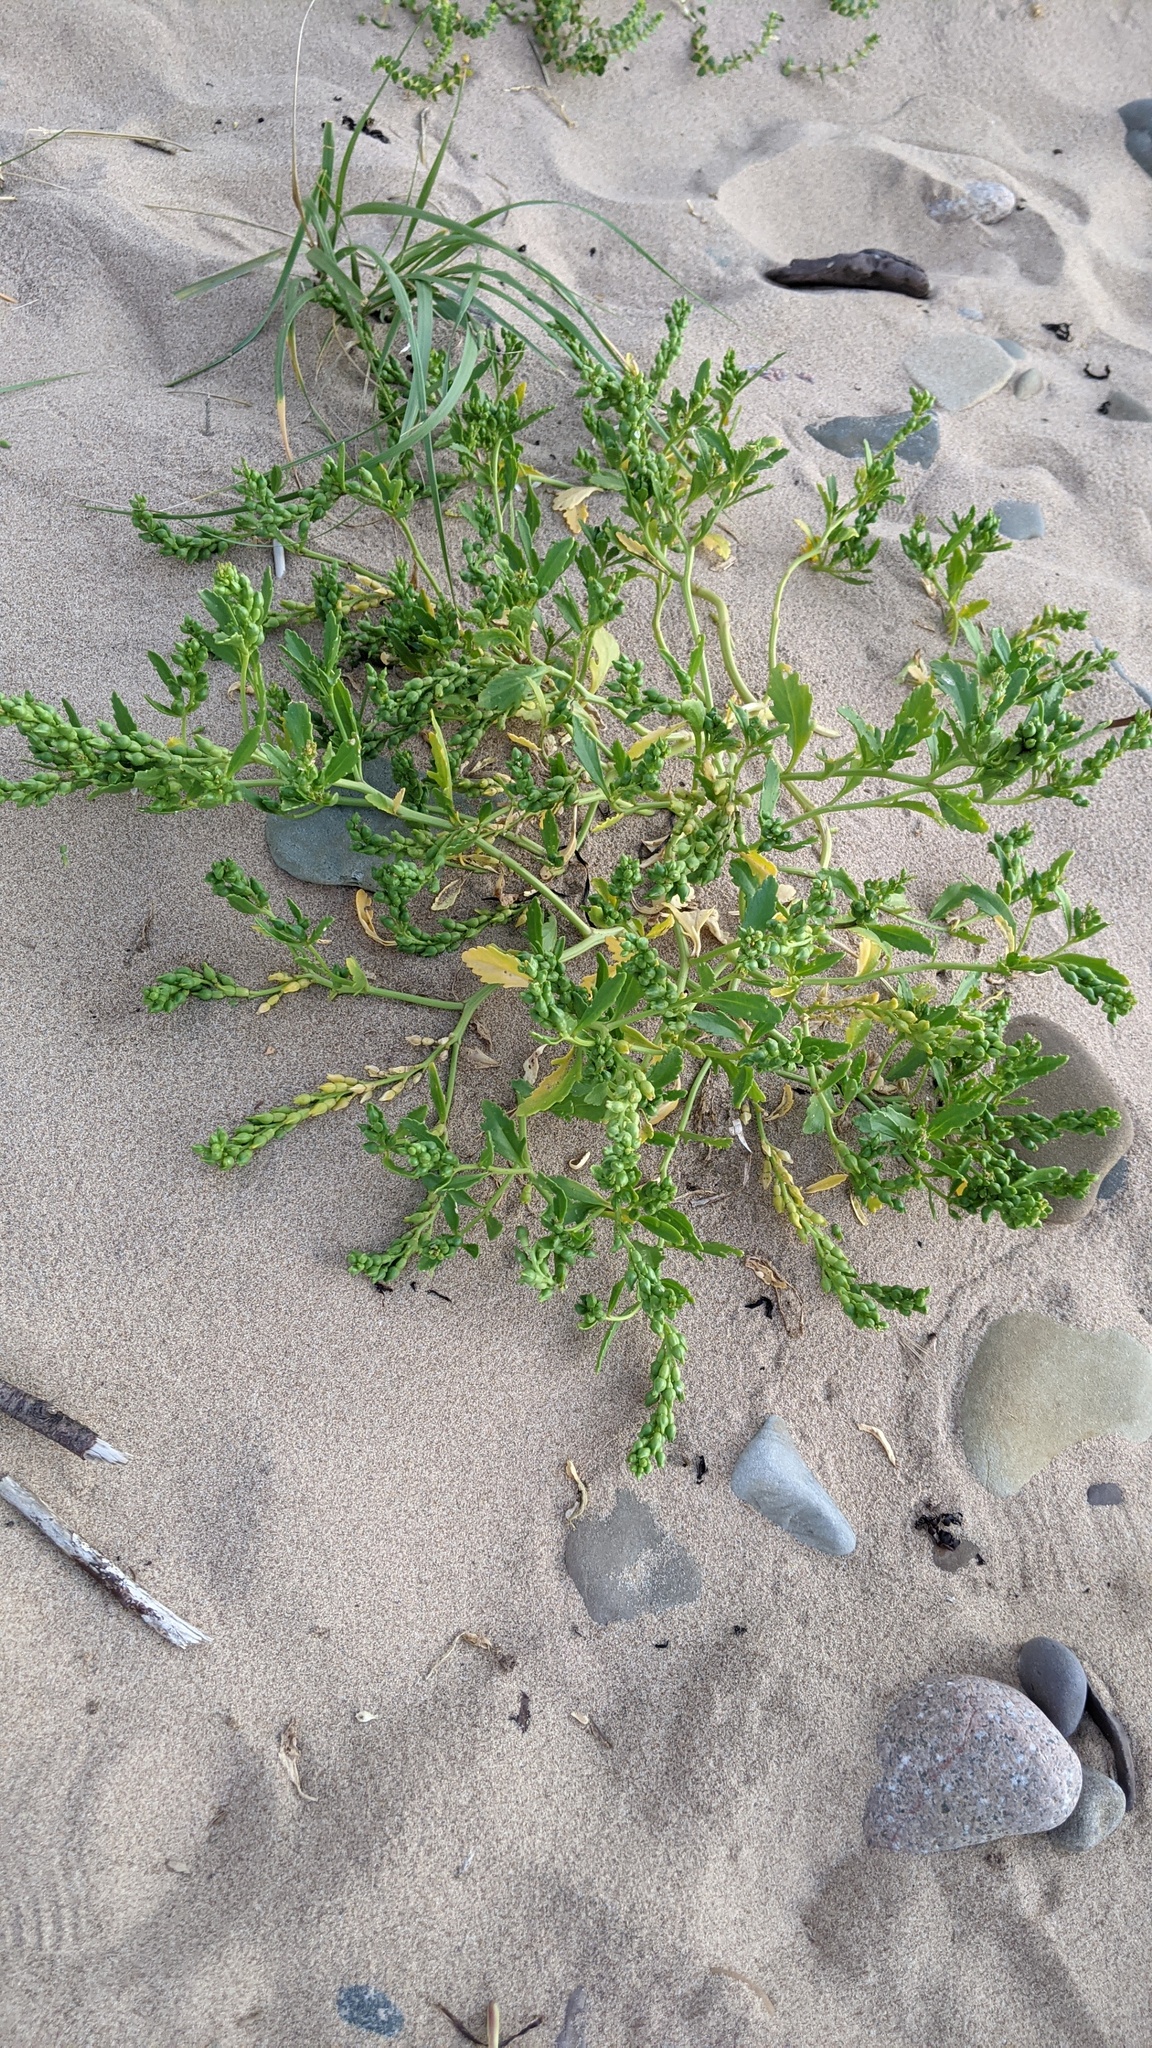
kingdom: Plantae
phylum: Tracheophyta
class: Magnoliopsida
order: Brassicales
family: Brassicaceae
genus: Cakile
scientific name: Cakile edentula
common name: American sea rocket
